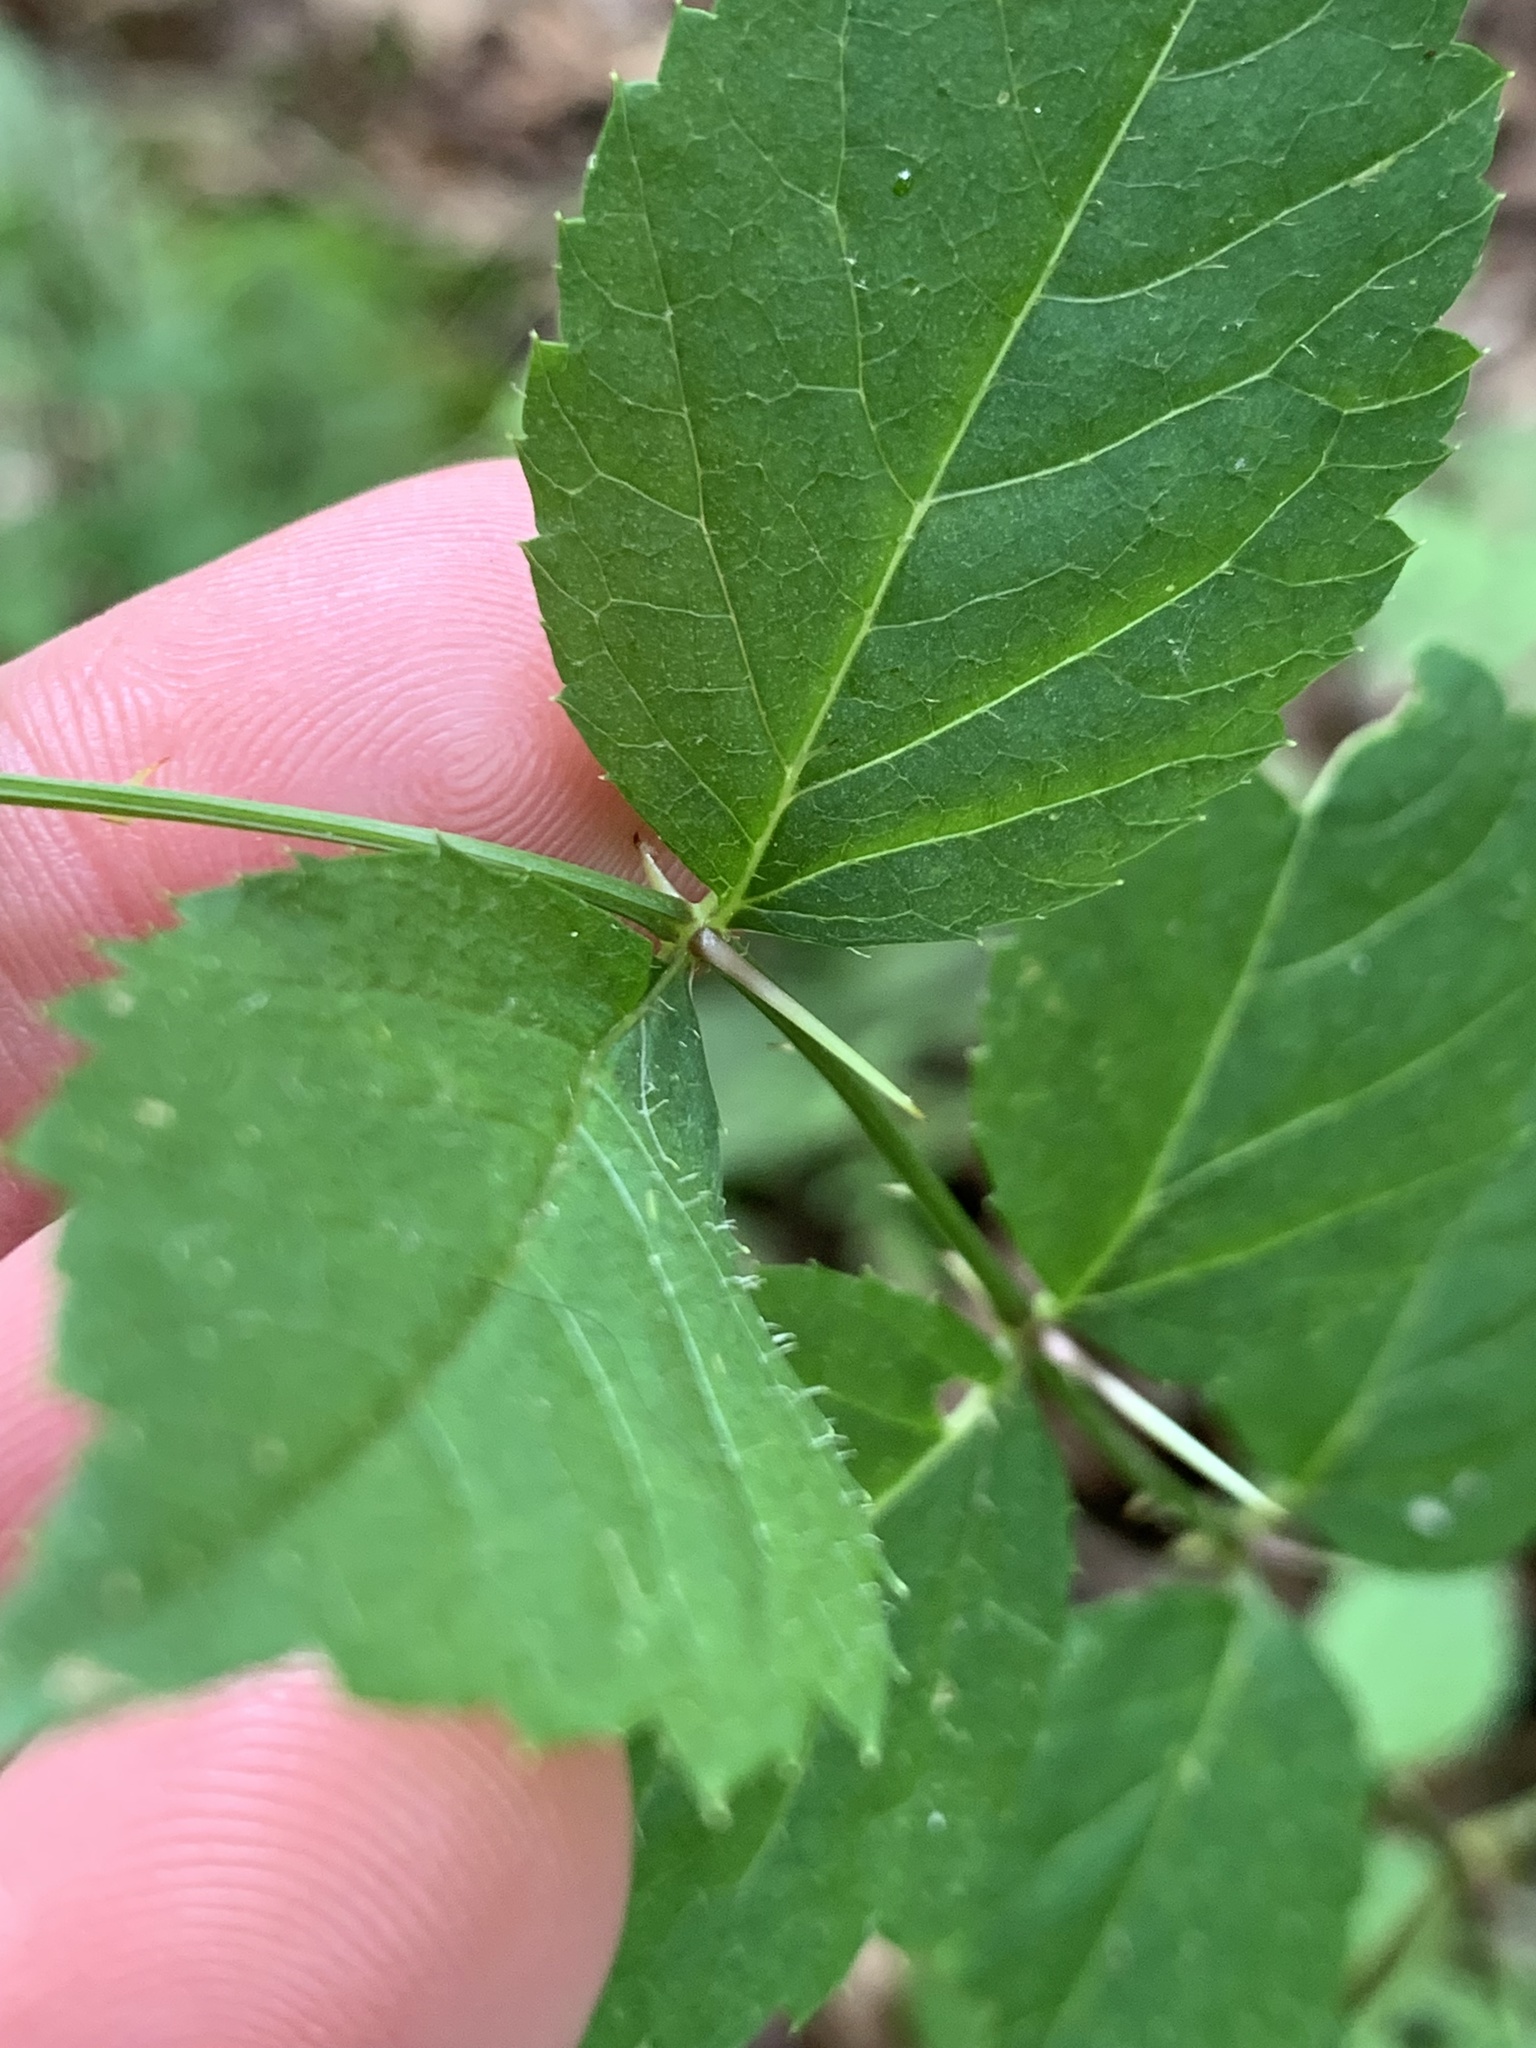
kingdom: Plantae
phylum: Tracheophyta
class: Magnoliopsida
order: Apiales
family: Araliaceae
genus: Aralia
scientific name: Aralia spinosa
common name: Hercules'-club
